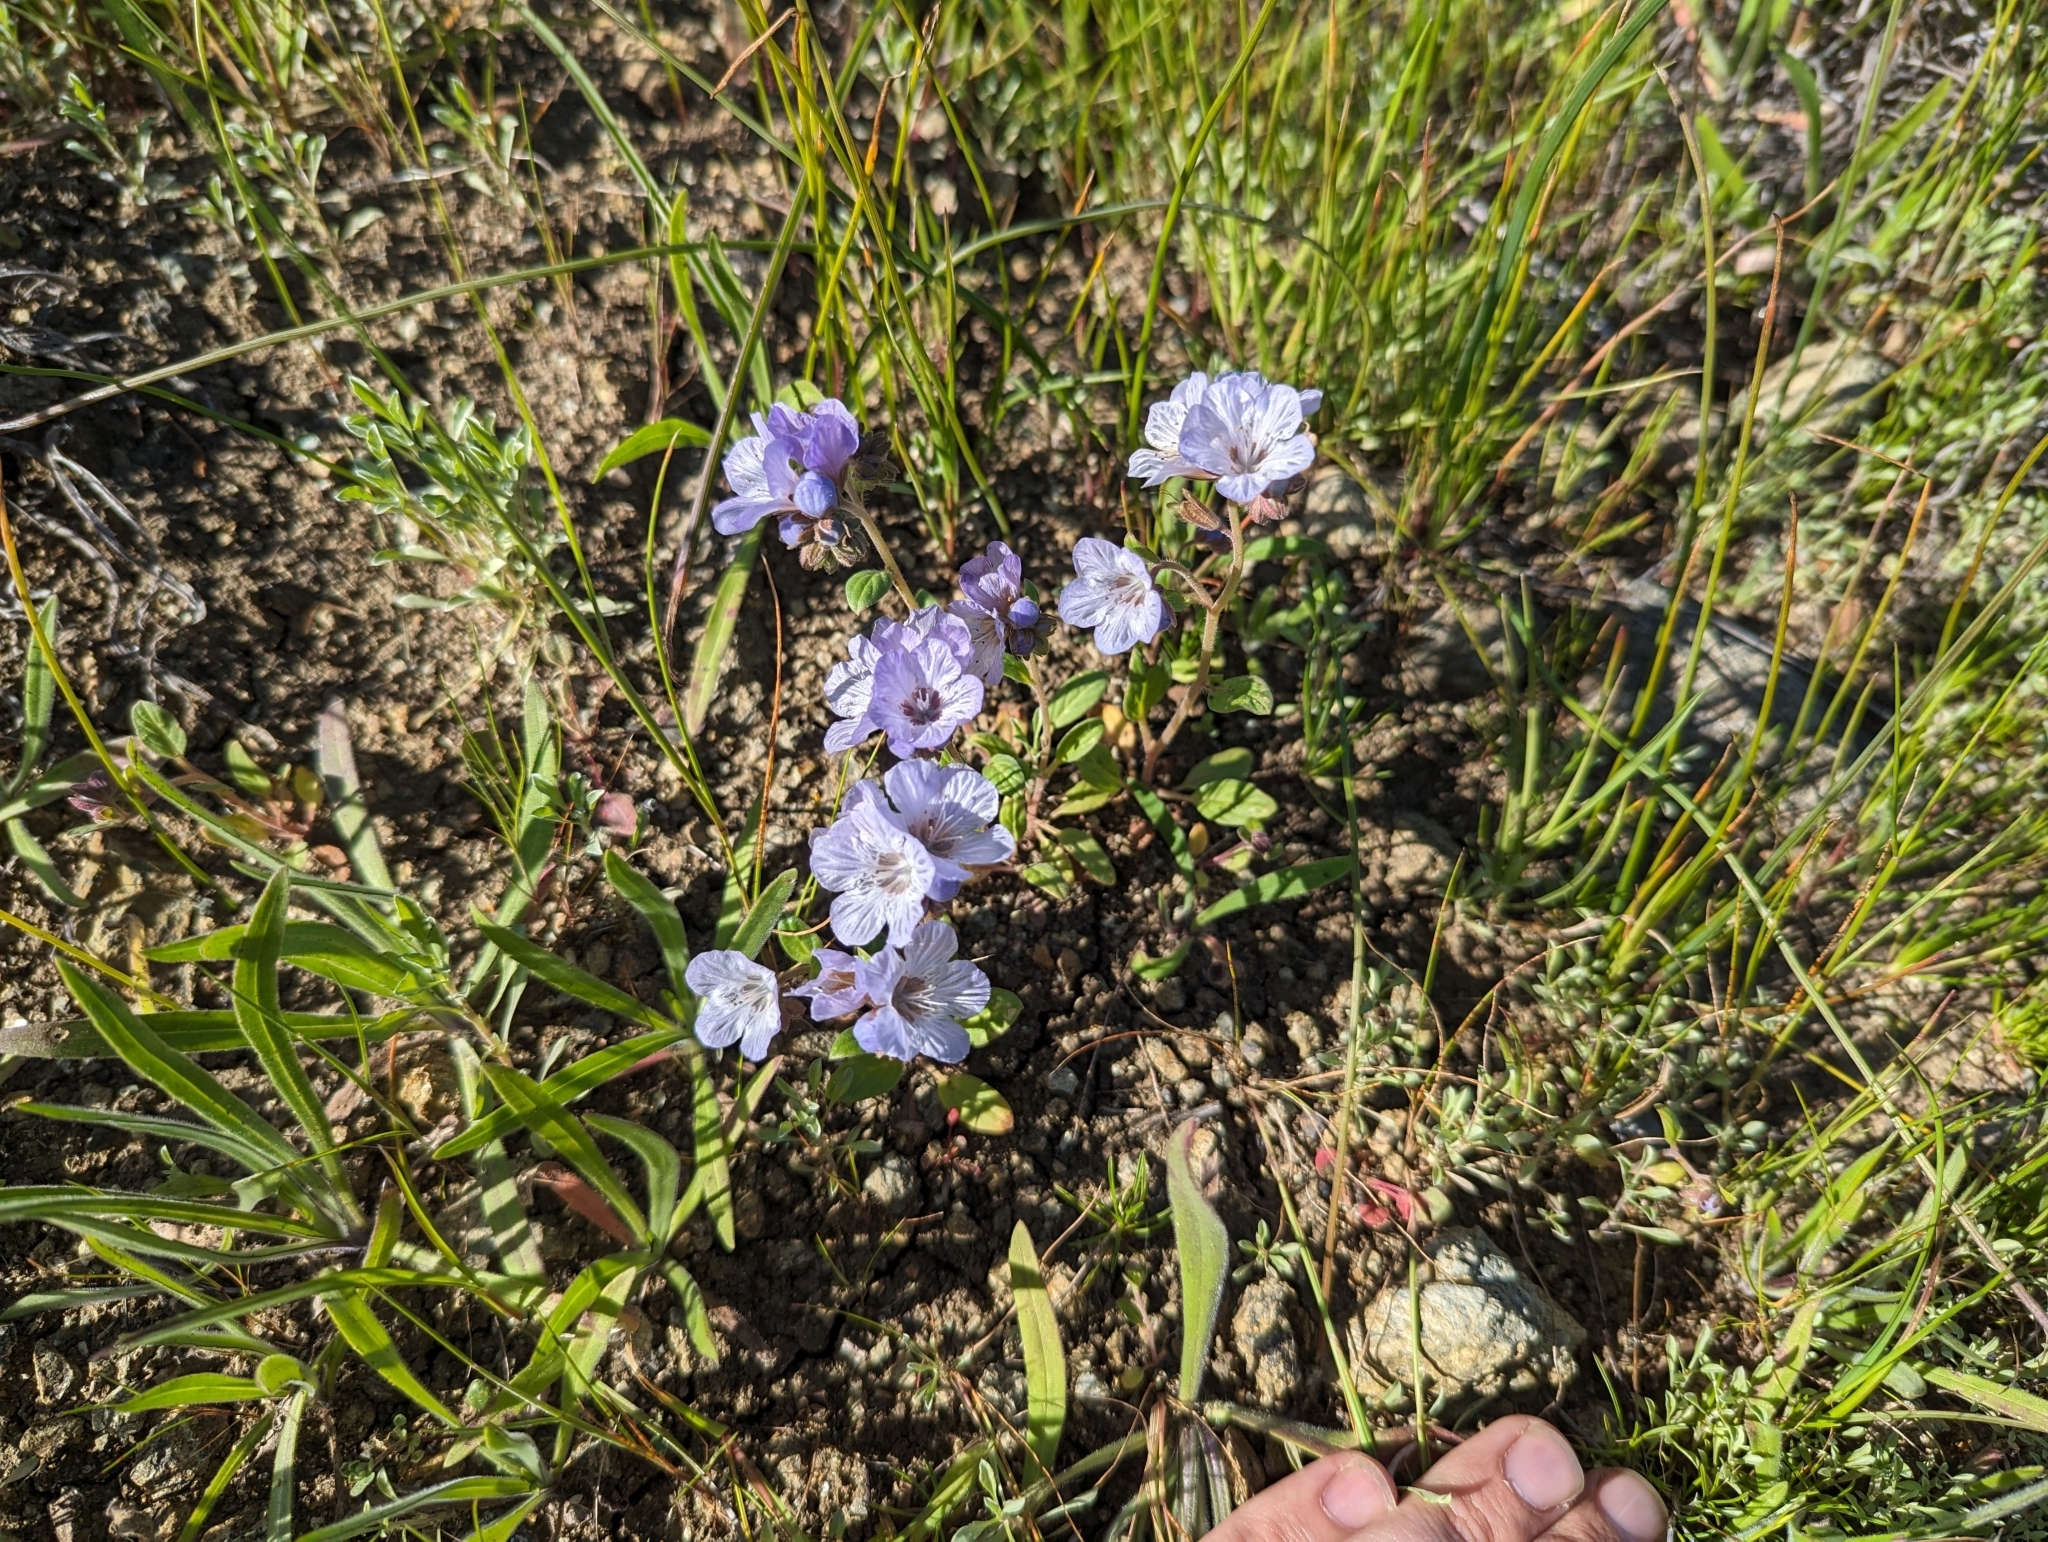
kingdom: Plantae
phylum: Tracheophyta
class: Magnoliopsida
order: Boraginales
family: Hydrophyllaceae
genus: Phacelia
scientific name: Phacelia divaricata
